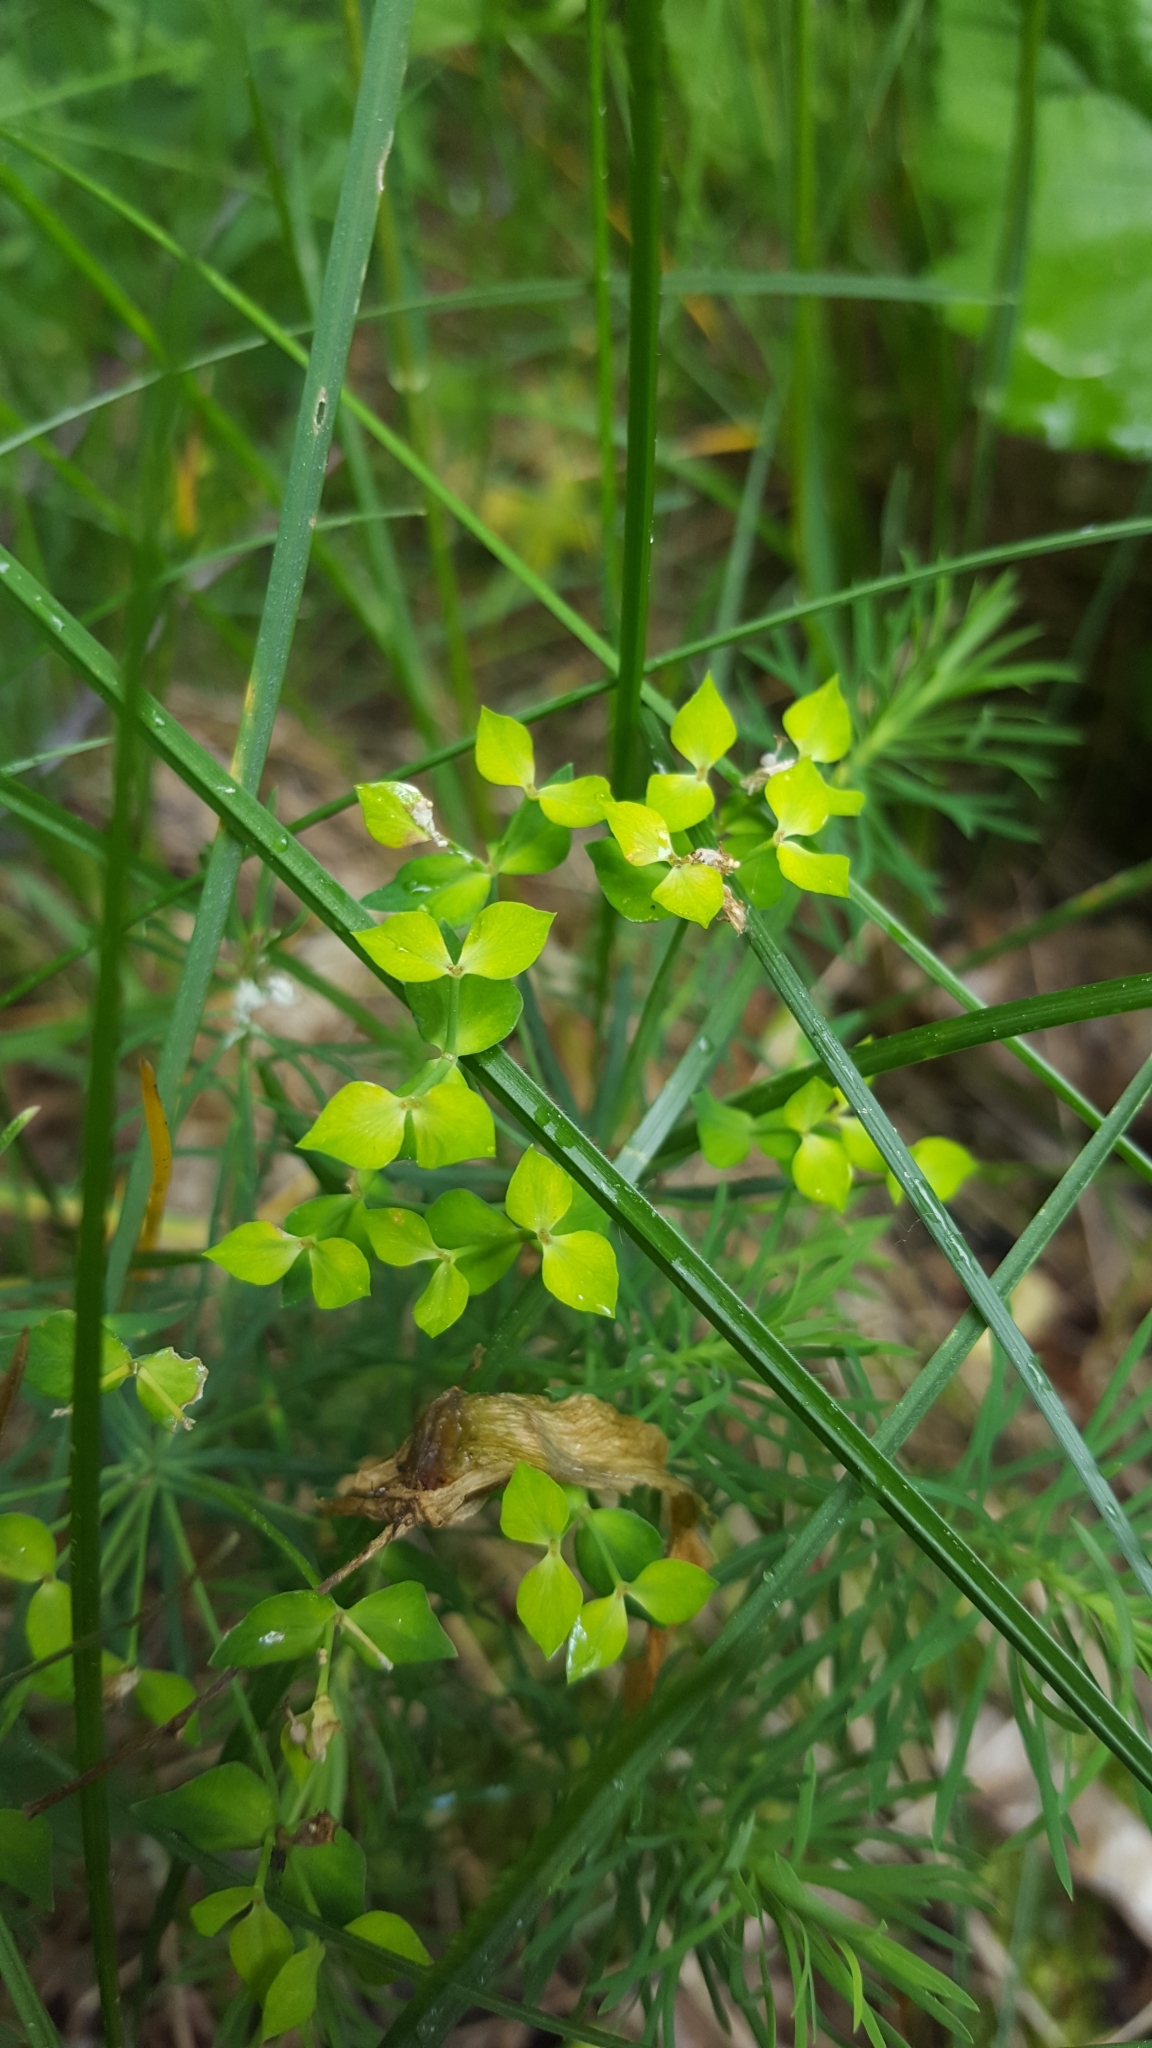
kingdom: Plantae
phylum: Tracheophyta
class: Magnoliopsida
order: Malpighiales
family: Euphorbiaceae
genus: Euphorbia
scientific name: Euphorbia cyparissias
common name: Cypress spurge
